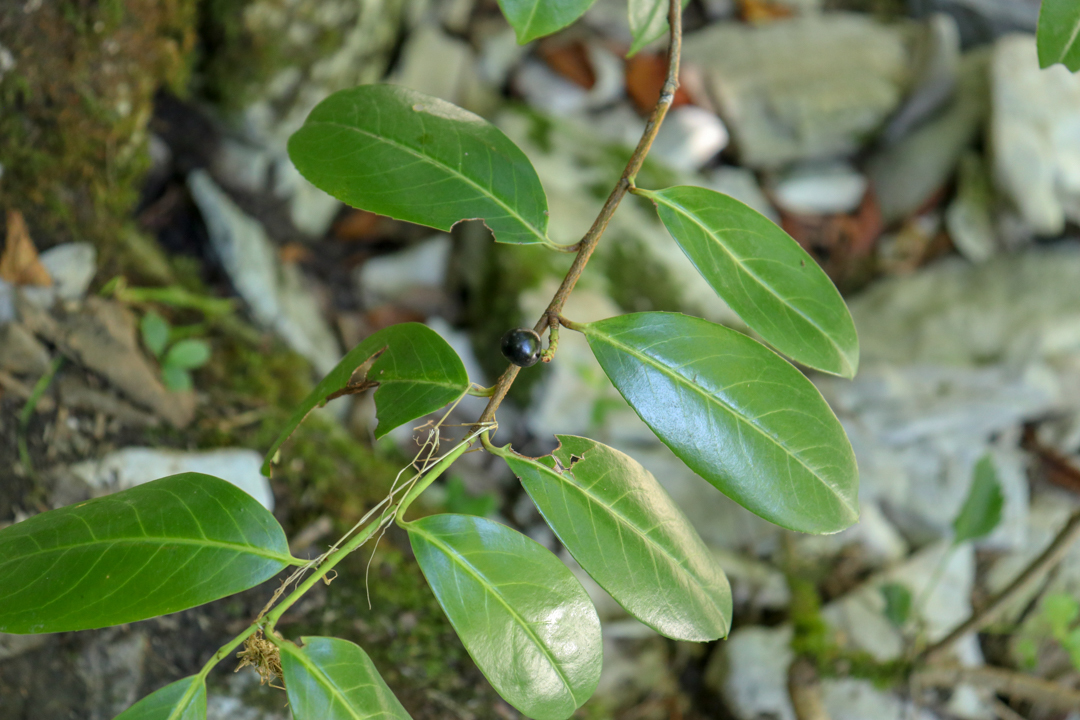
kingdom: Plantae
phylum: Tracheophyta
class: Magnoliopsida
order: Rosales
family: Rosaceae
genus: Prunus
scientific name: Prunus laurocerasus
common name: Cherry laurel
